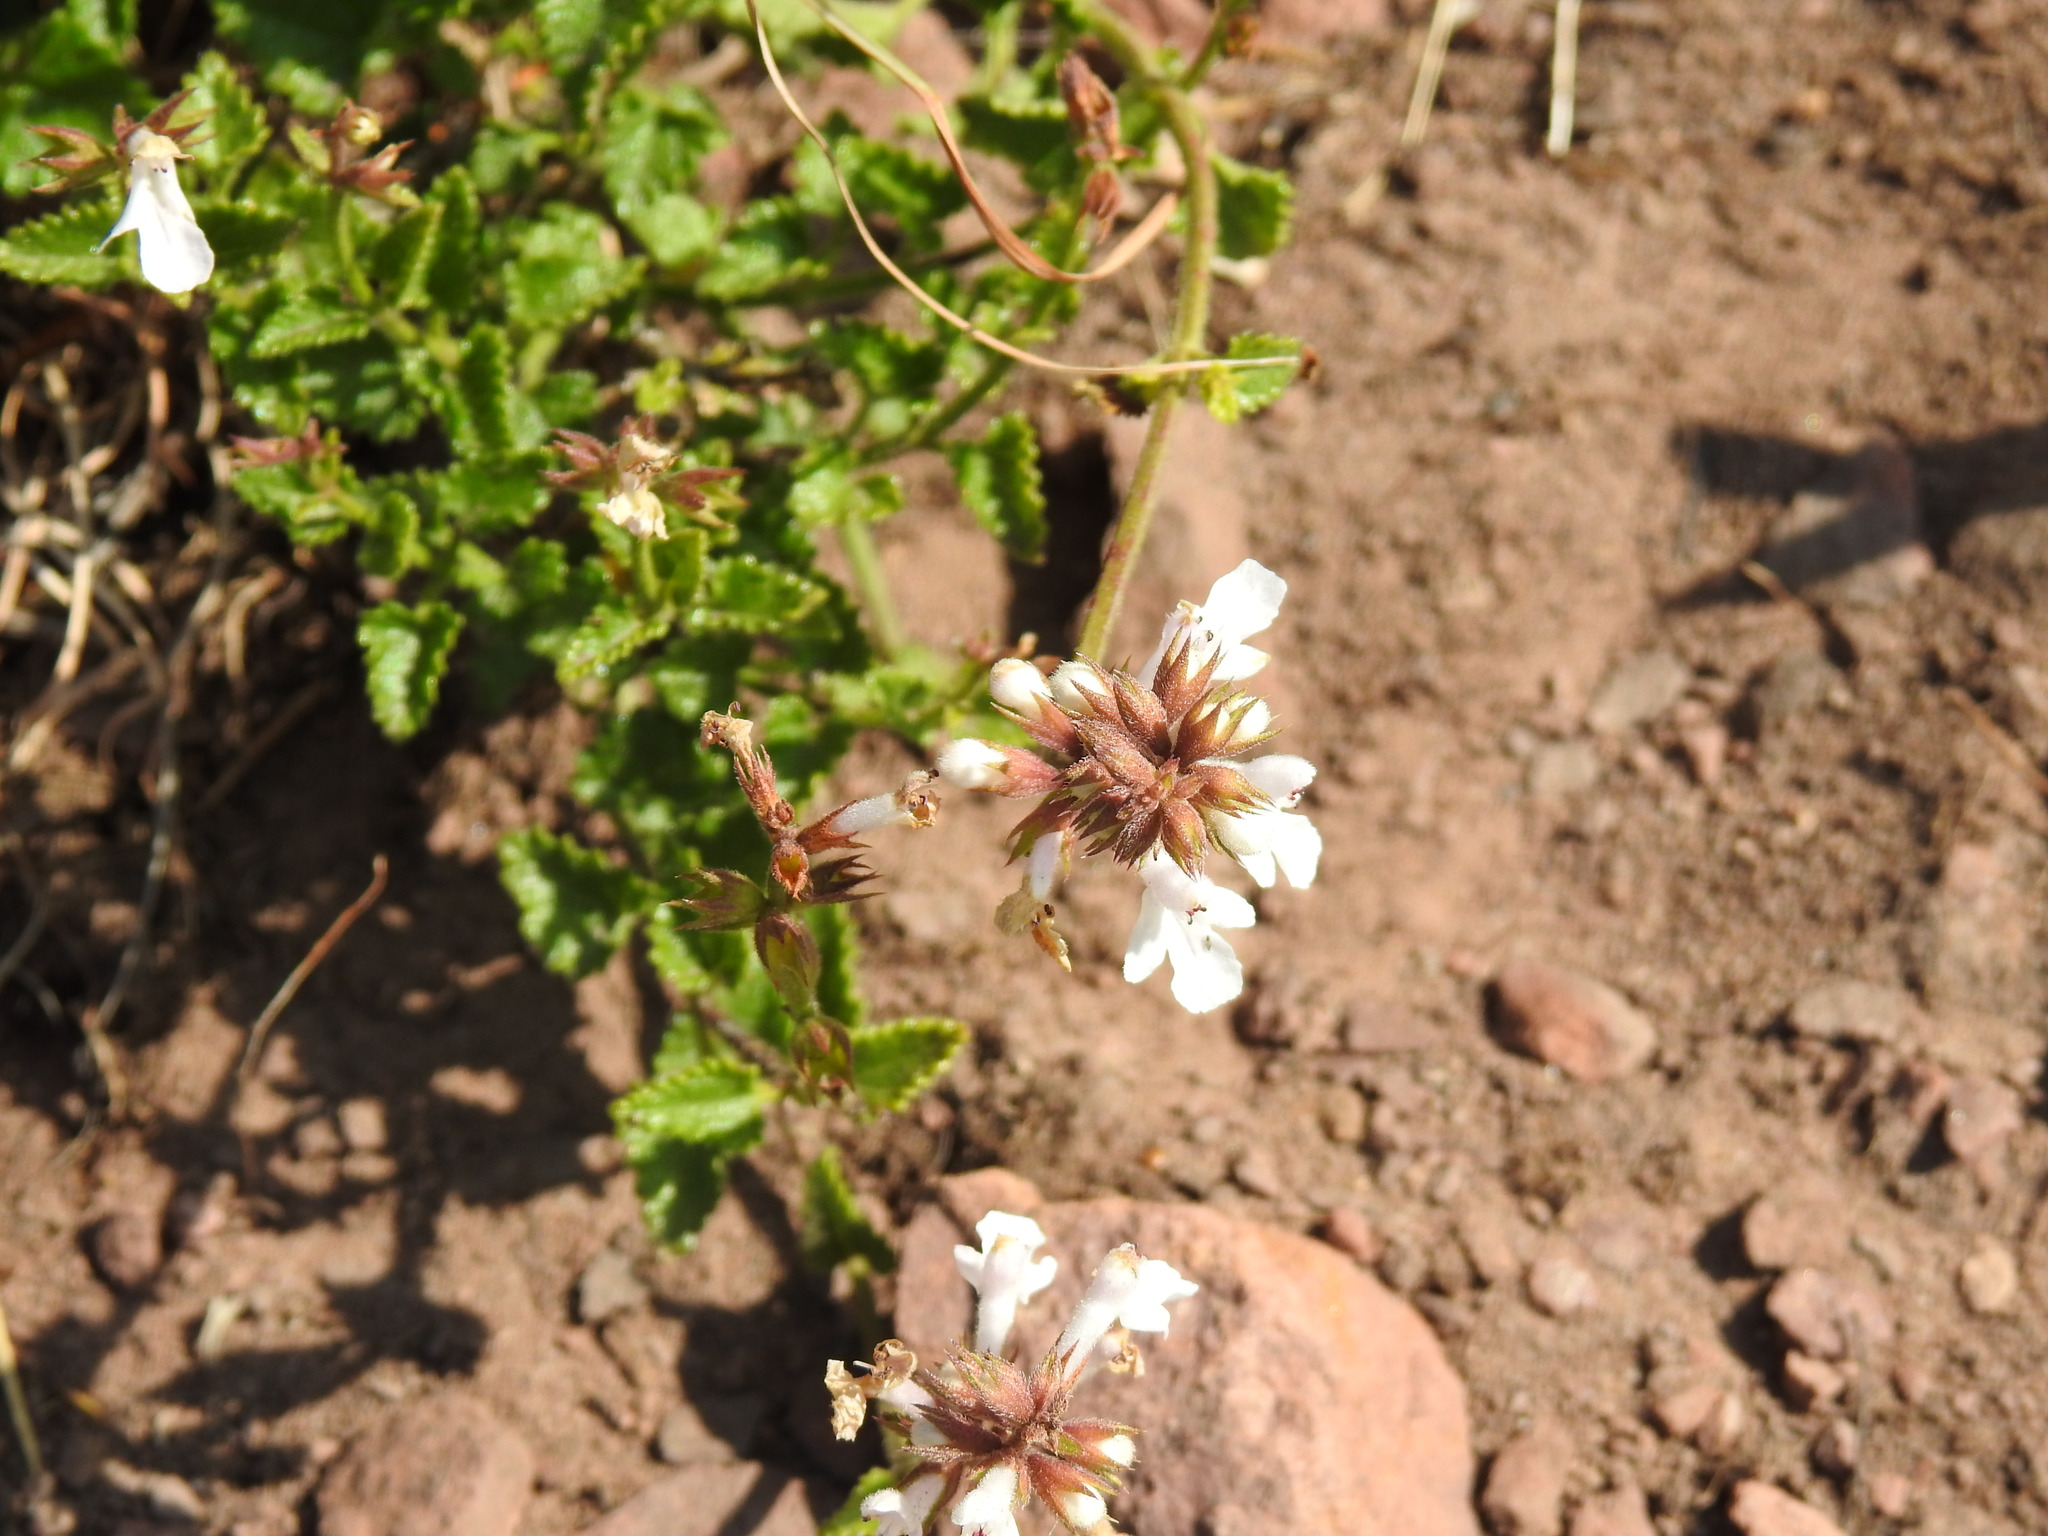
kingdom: Plantae
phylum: Tracheophyta
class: Magnoliopsida
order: Lamiales
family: Lamiaceae
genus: Stachys
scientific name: Stachys aethiopica
